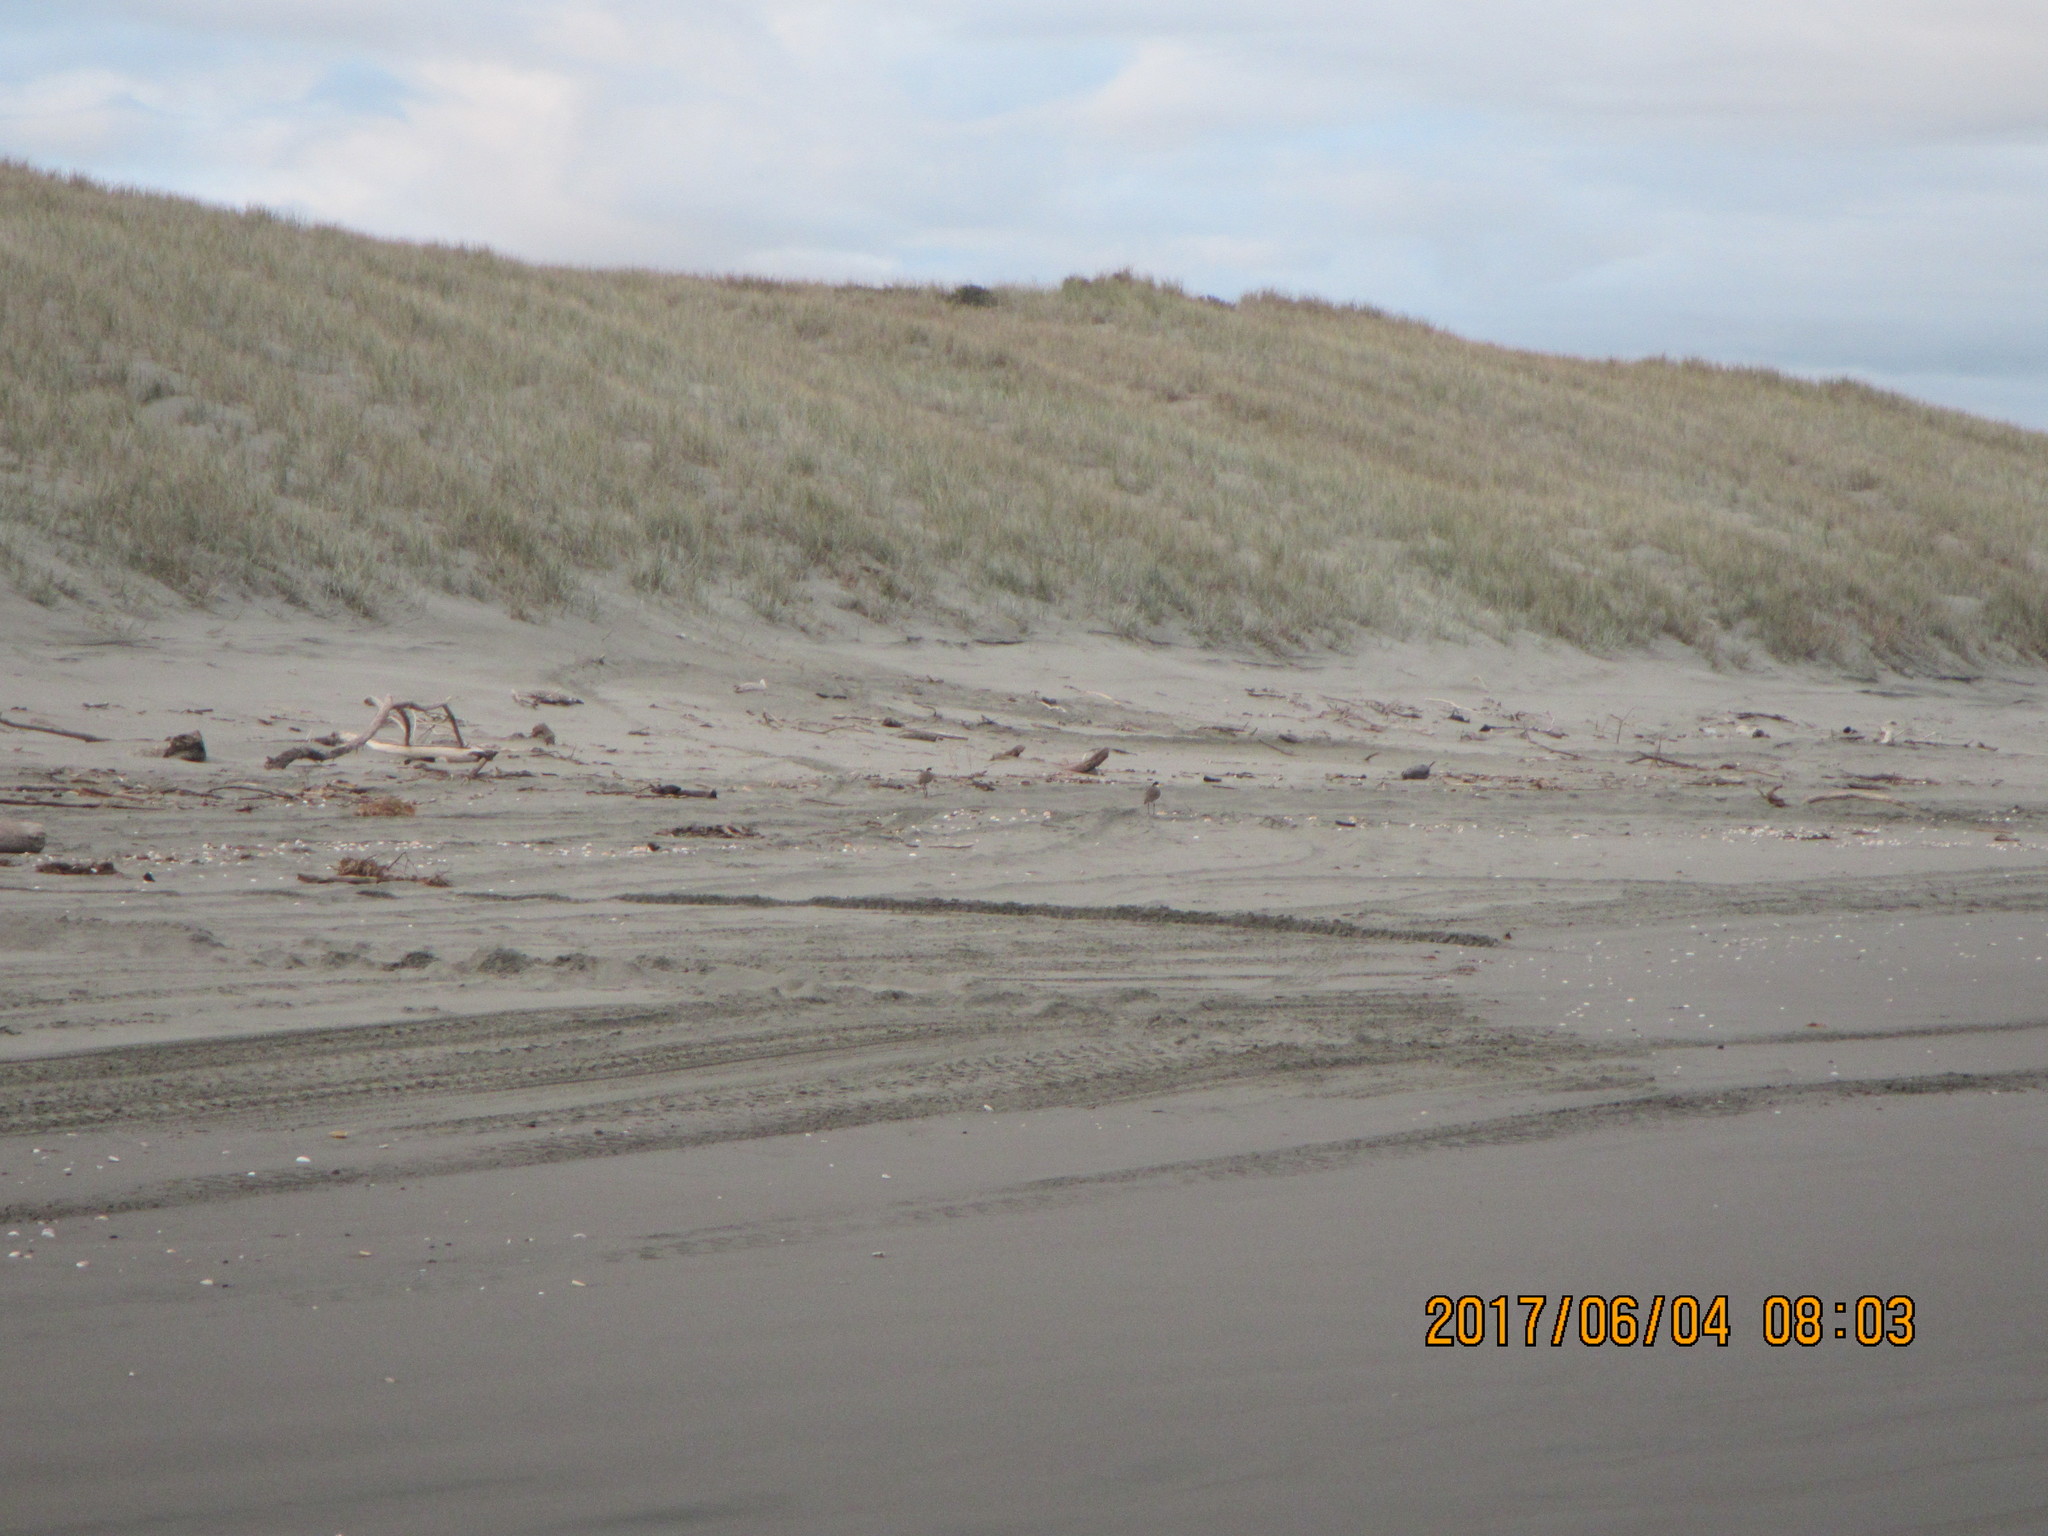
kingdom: Animalia
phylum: Chordata
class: Aves
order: Charadriiformes
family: Charadriidae
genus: Vanellus
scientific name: Vanellus miles
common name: Masked lapwing
